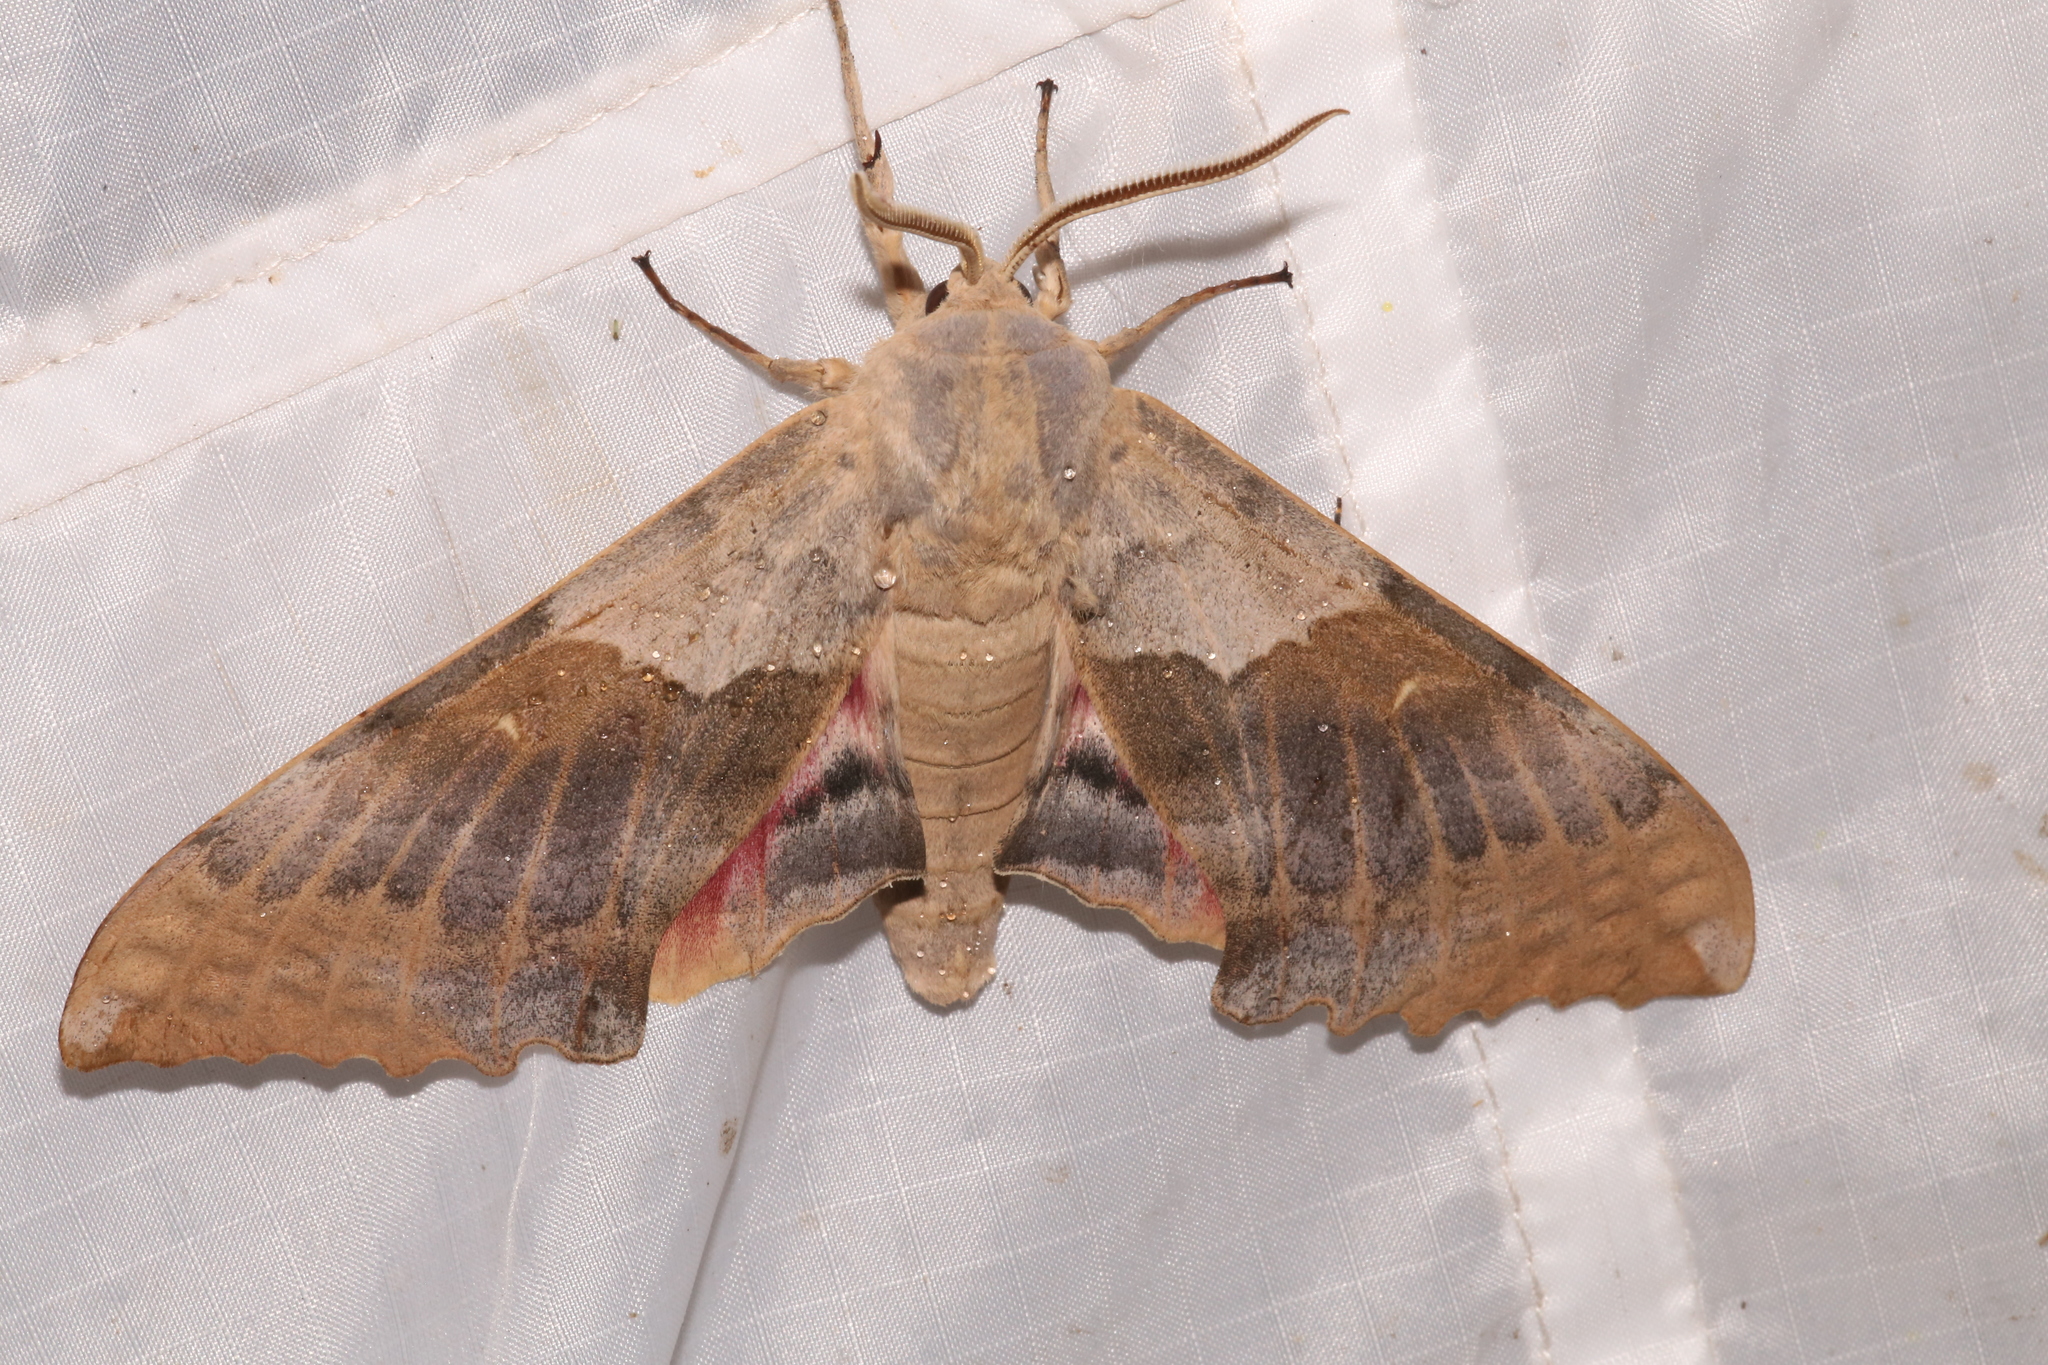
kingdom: Animalia
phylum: Arthropoda
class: Insecta
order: Lepidoptera
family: Sphingidae
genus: Pachysphinx
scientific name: Pachysphinx occidentalis
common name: Western poplar sphinx
